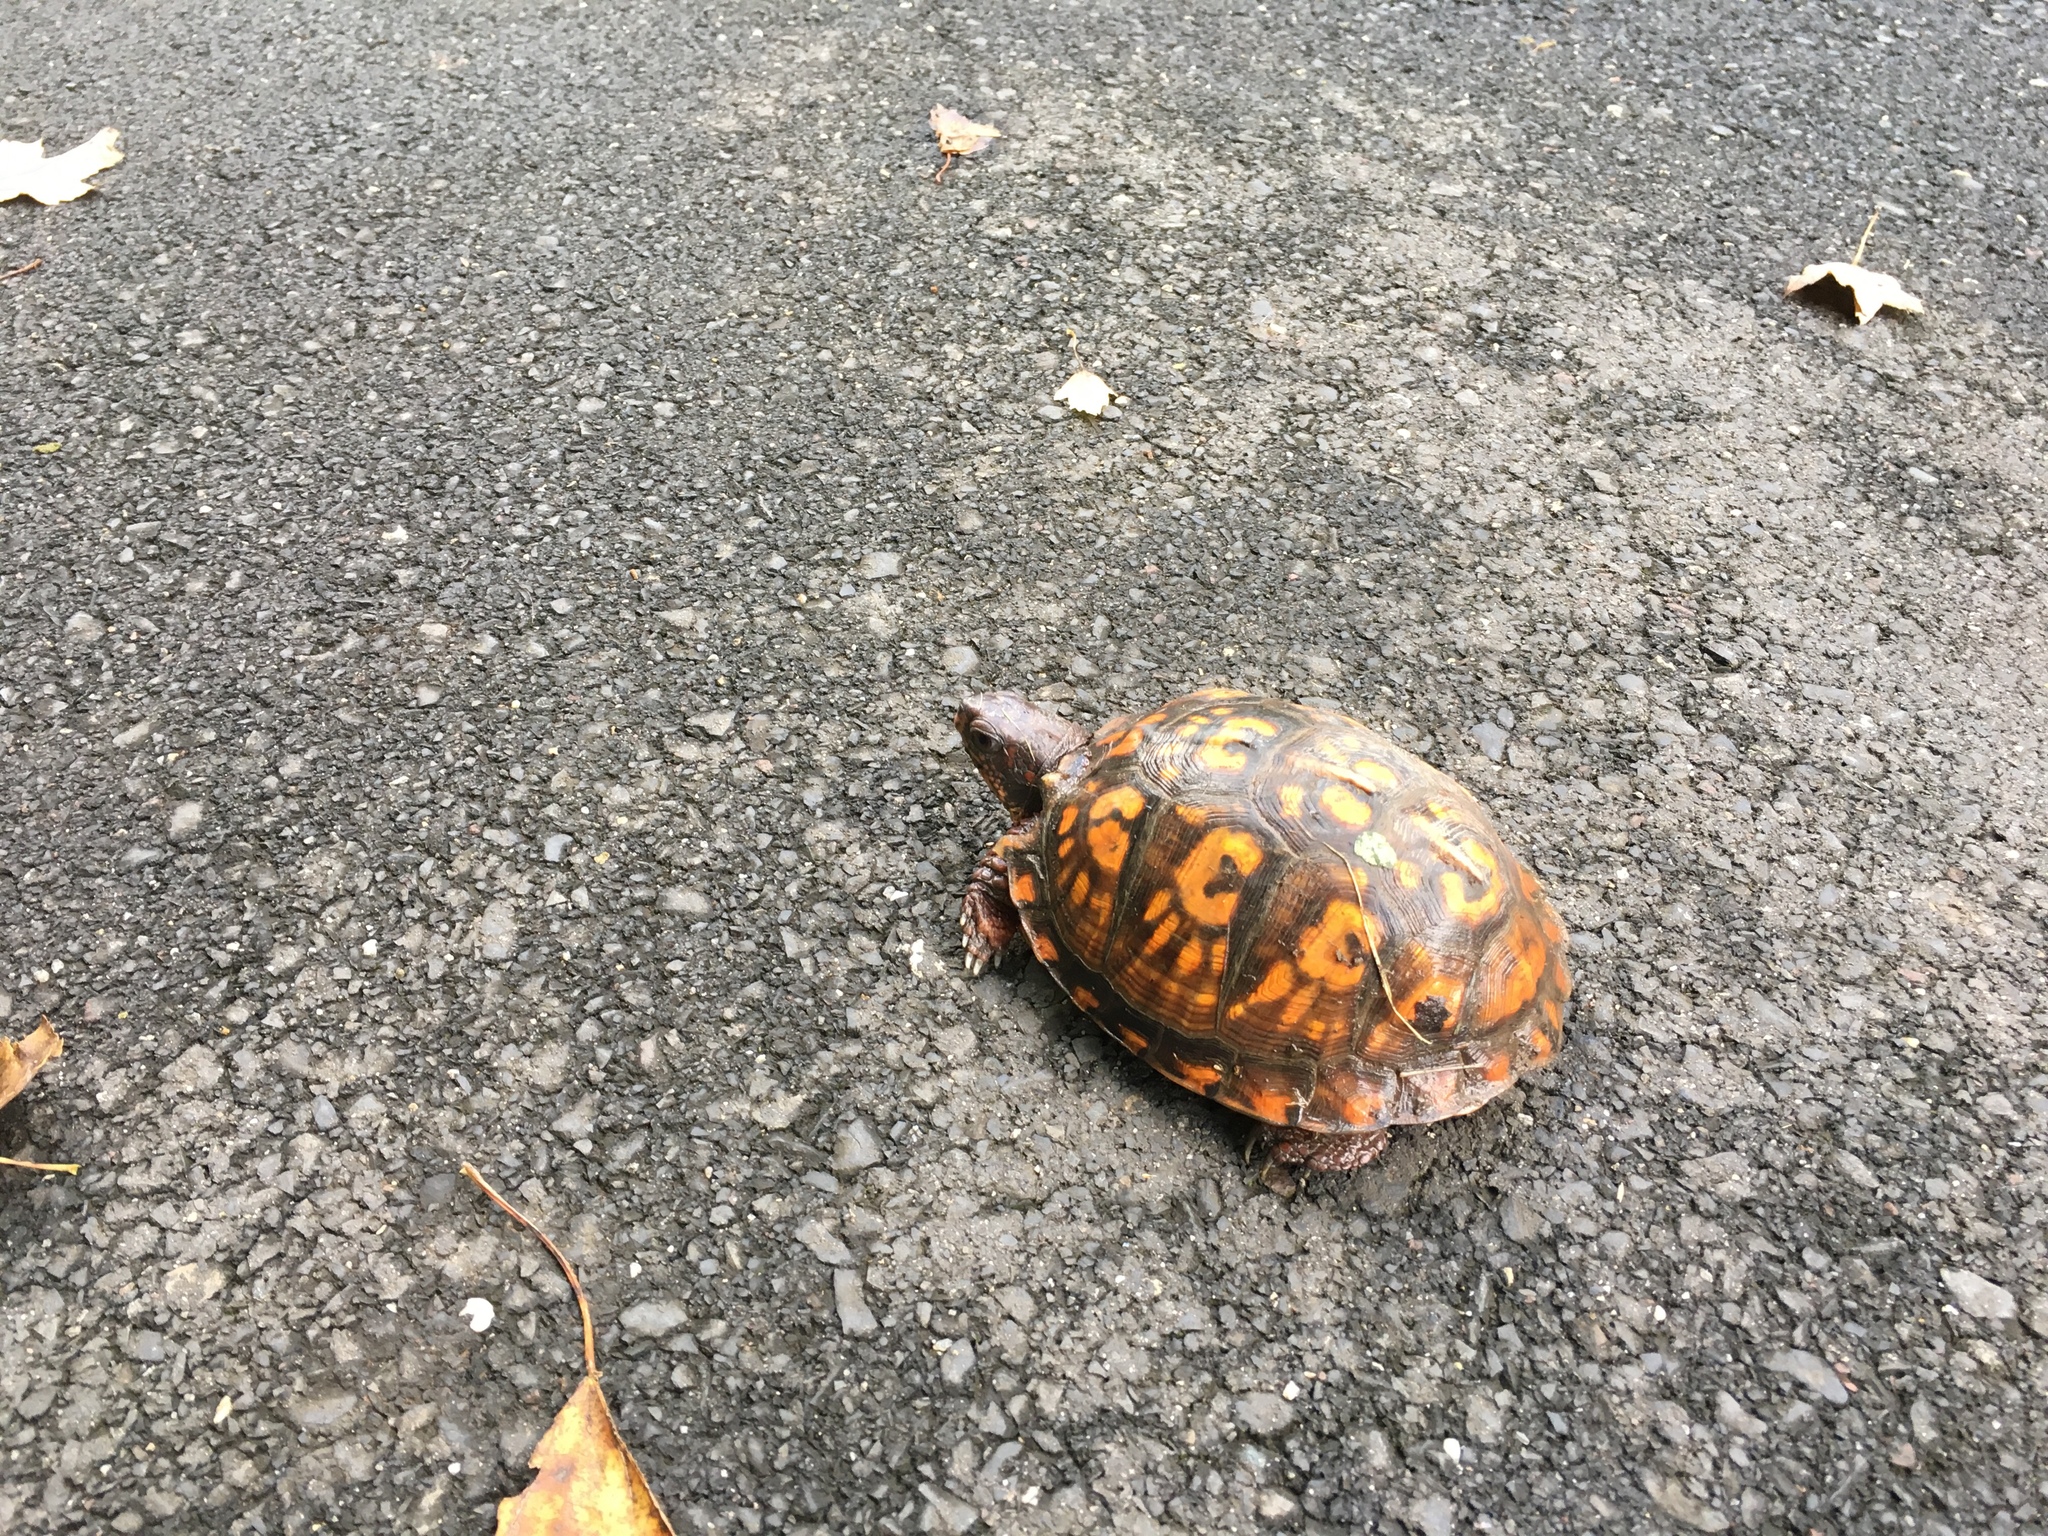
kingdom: Animalia
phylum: Chordata
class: Testudines
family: Emydidae
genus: Terrapene
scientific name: Terrapene carolina
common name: Common box turtle
